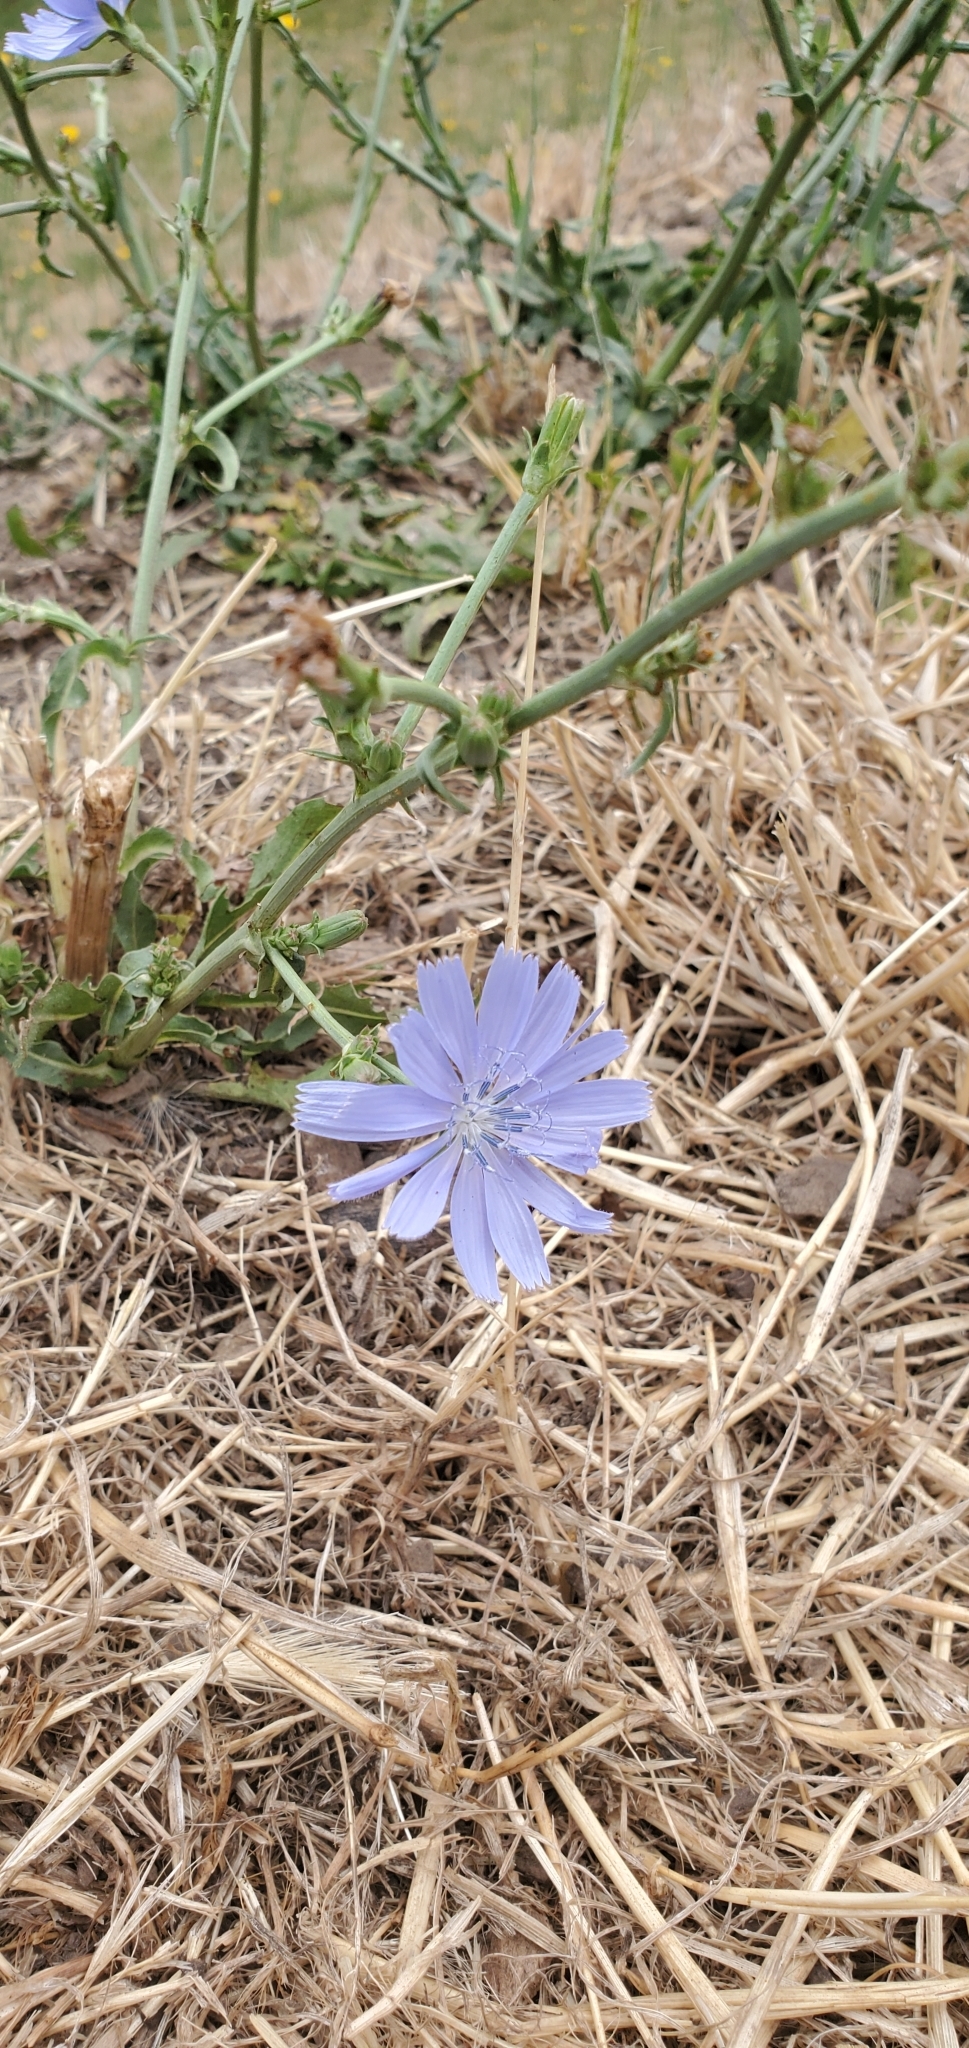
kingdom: Plantae
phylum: Tracheophyta
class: Magnoliopsida
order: Asterales
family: Asteraceae
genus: Cichorium
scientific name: Cichorium intybus
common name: Chicory
